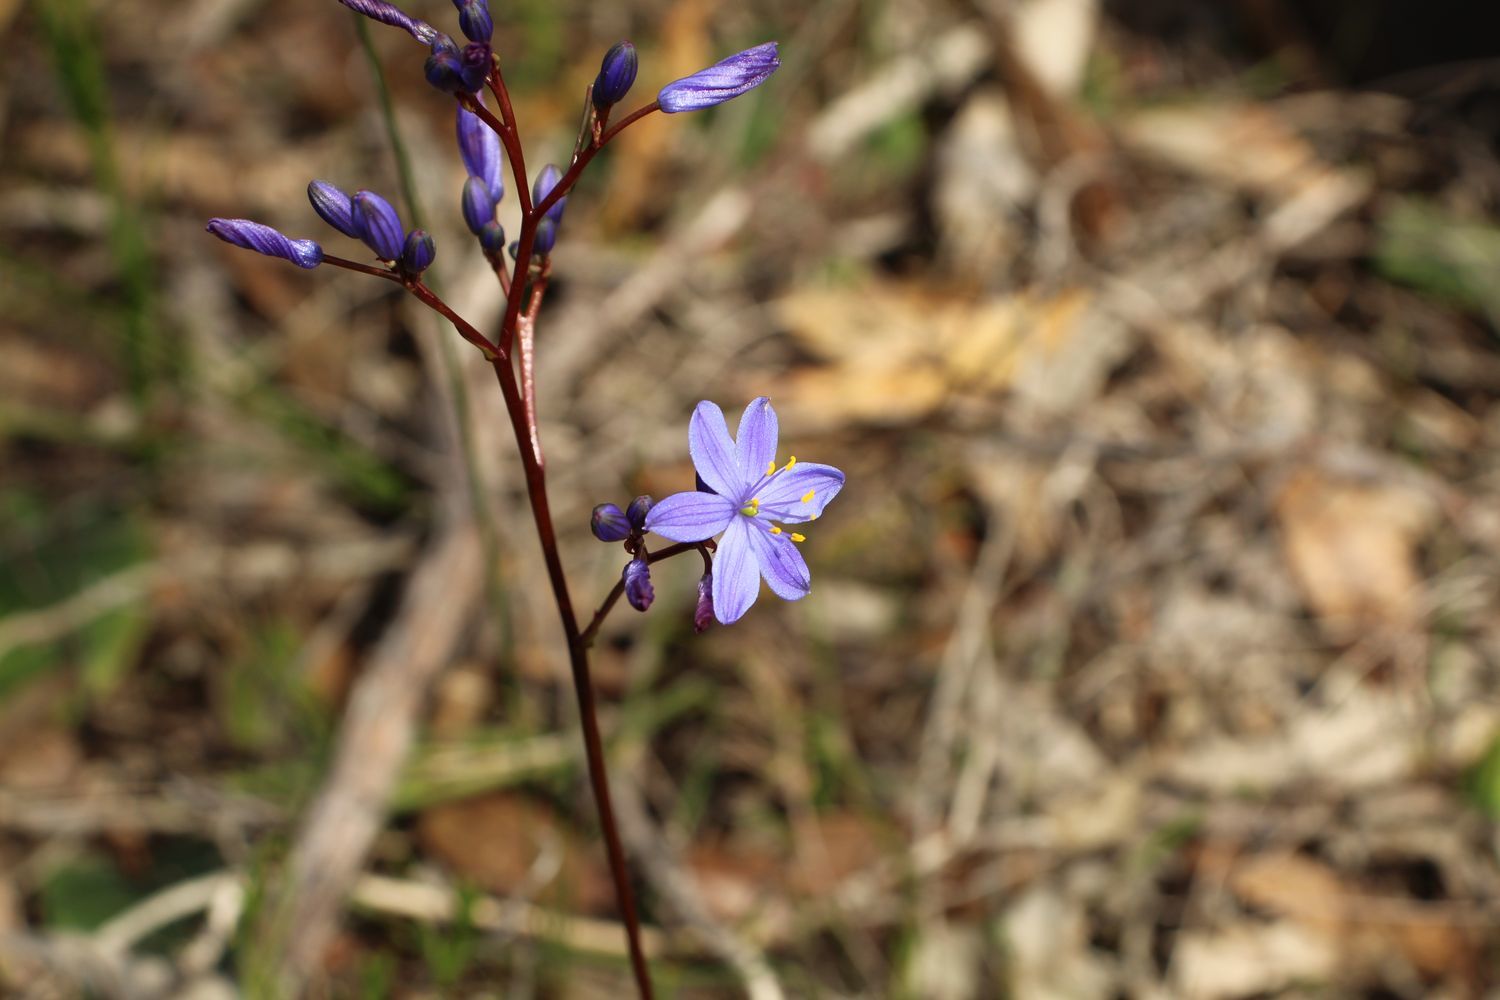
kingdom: Plantae
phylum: Tracheophyta
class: Liliopsida
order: Asparagales
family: Asphodelaceae
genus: Chamaescilla
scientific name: Chamaescilla corymbosa
